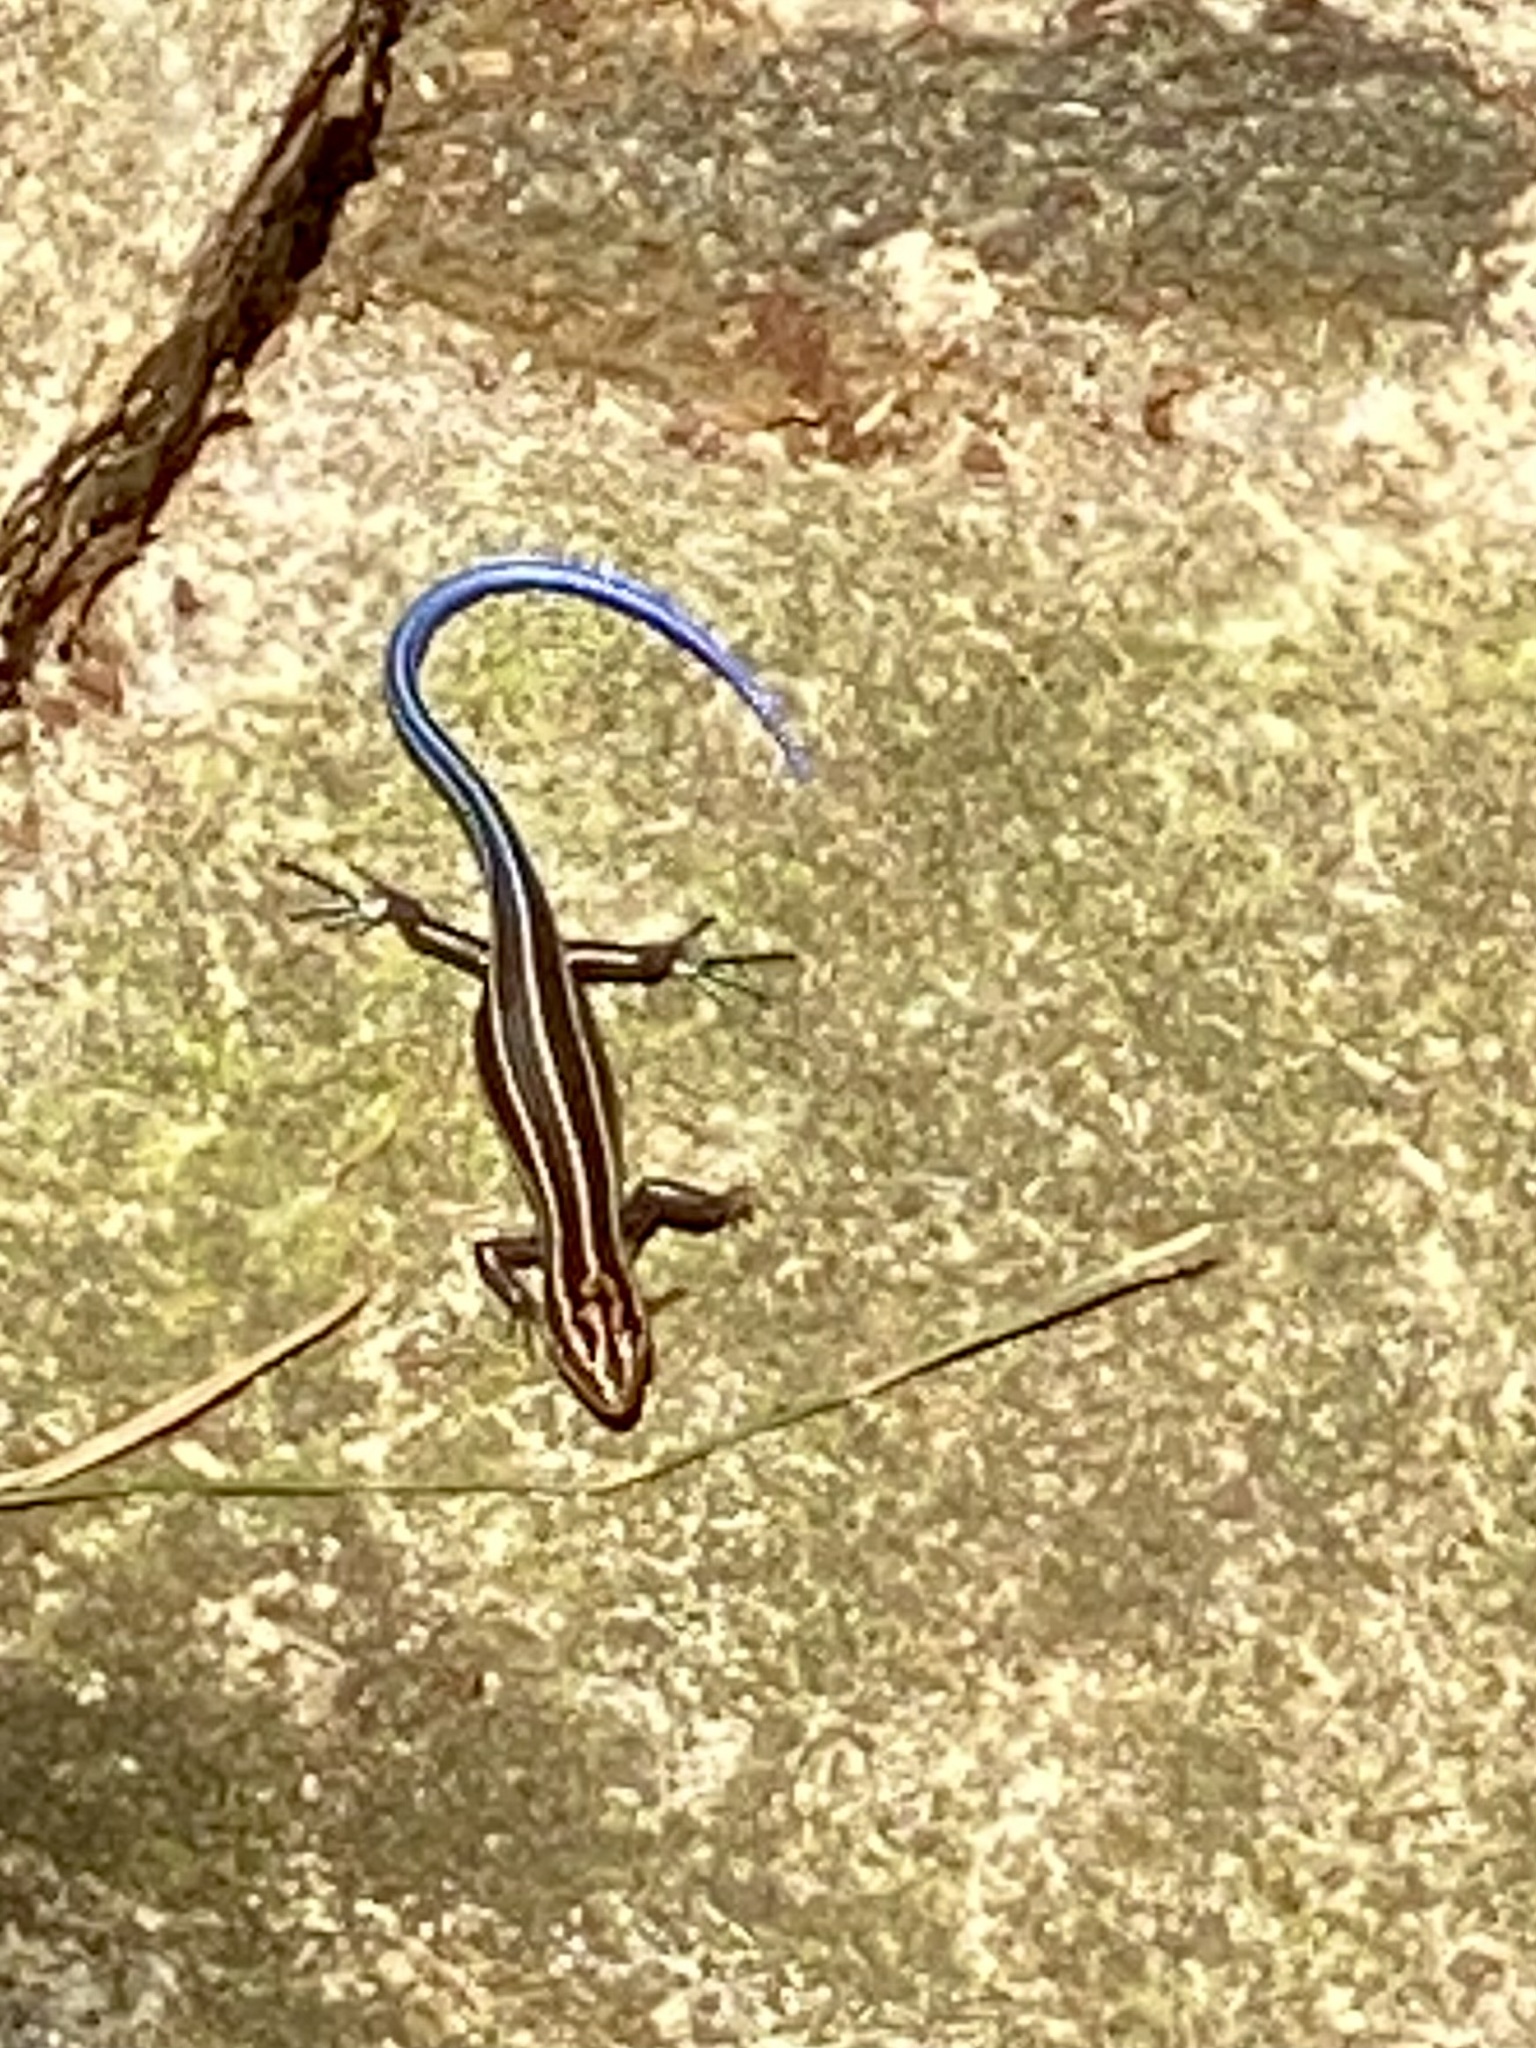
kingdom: Animalia
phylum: Chordata
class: Squamata
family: Scincidae
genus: Plestiodon
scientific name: Plestiodon fasciatus
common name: Five-lined skink
